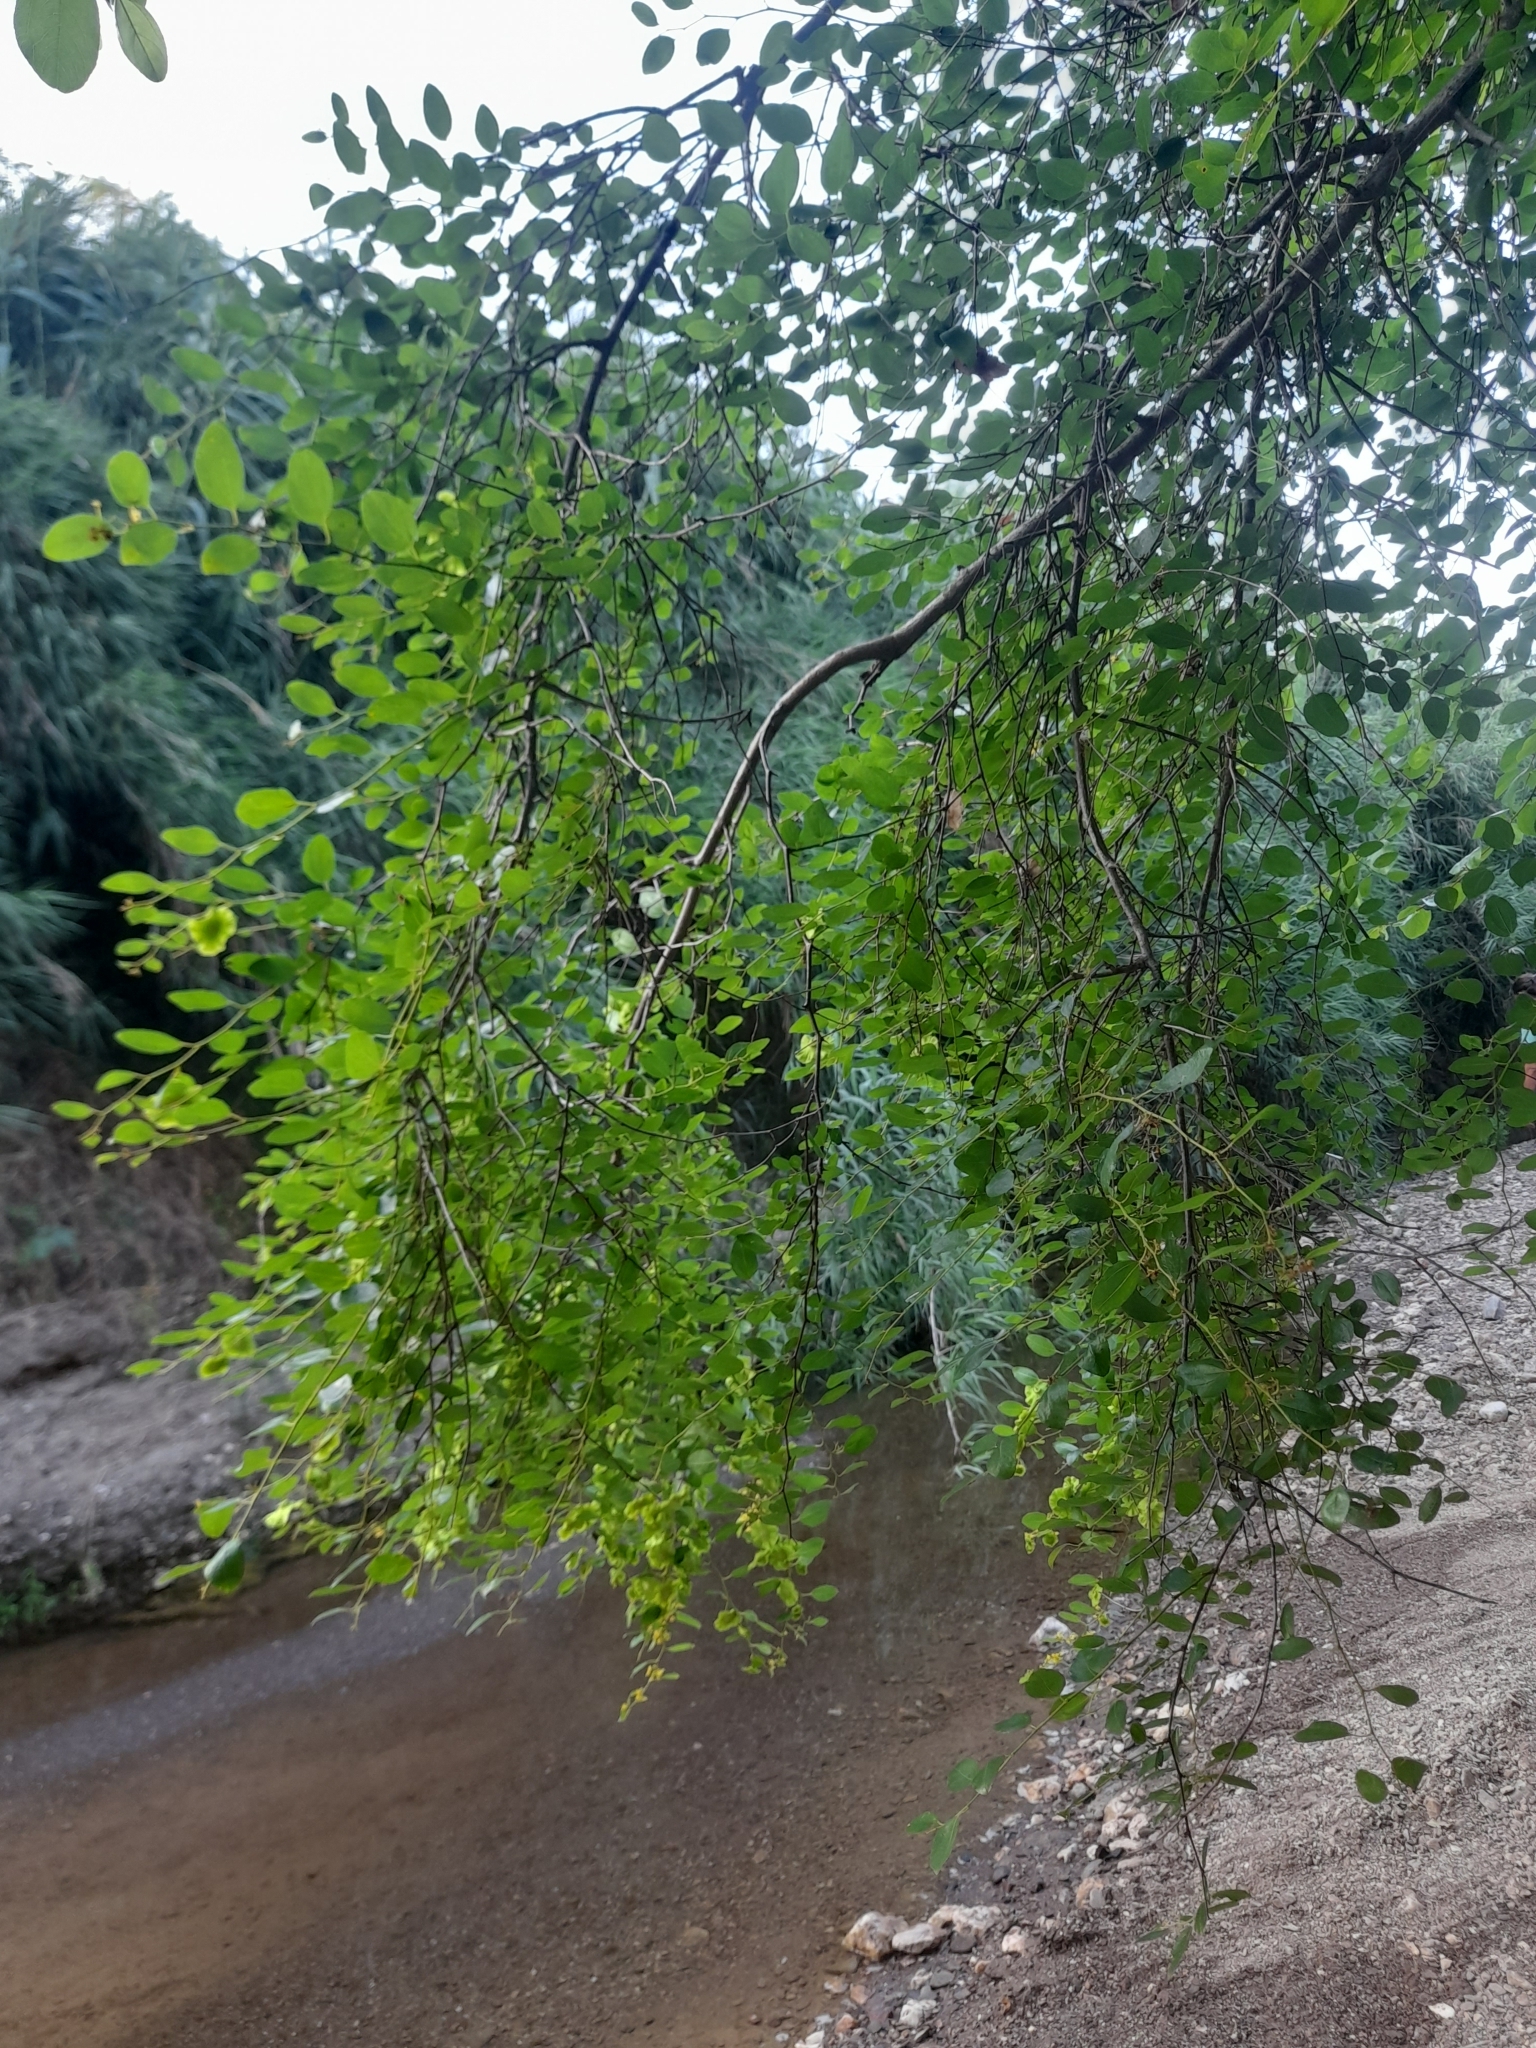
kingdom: Plantae
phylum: Tracheophyta
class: Magnoliopsida
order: Rosales
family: Rhamnaceae
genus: Paliurus
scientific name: Paliurus spina-christi
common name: Jeruselem thorn
